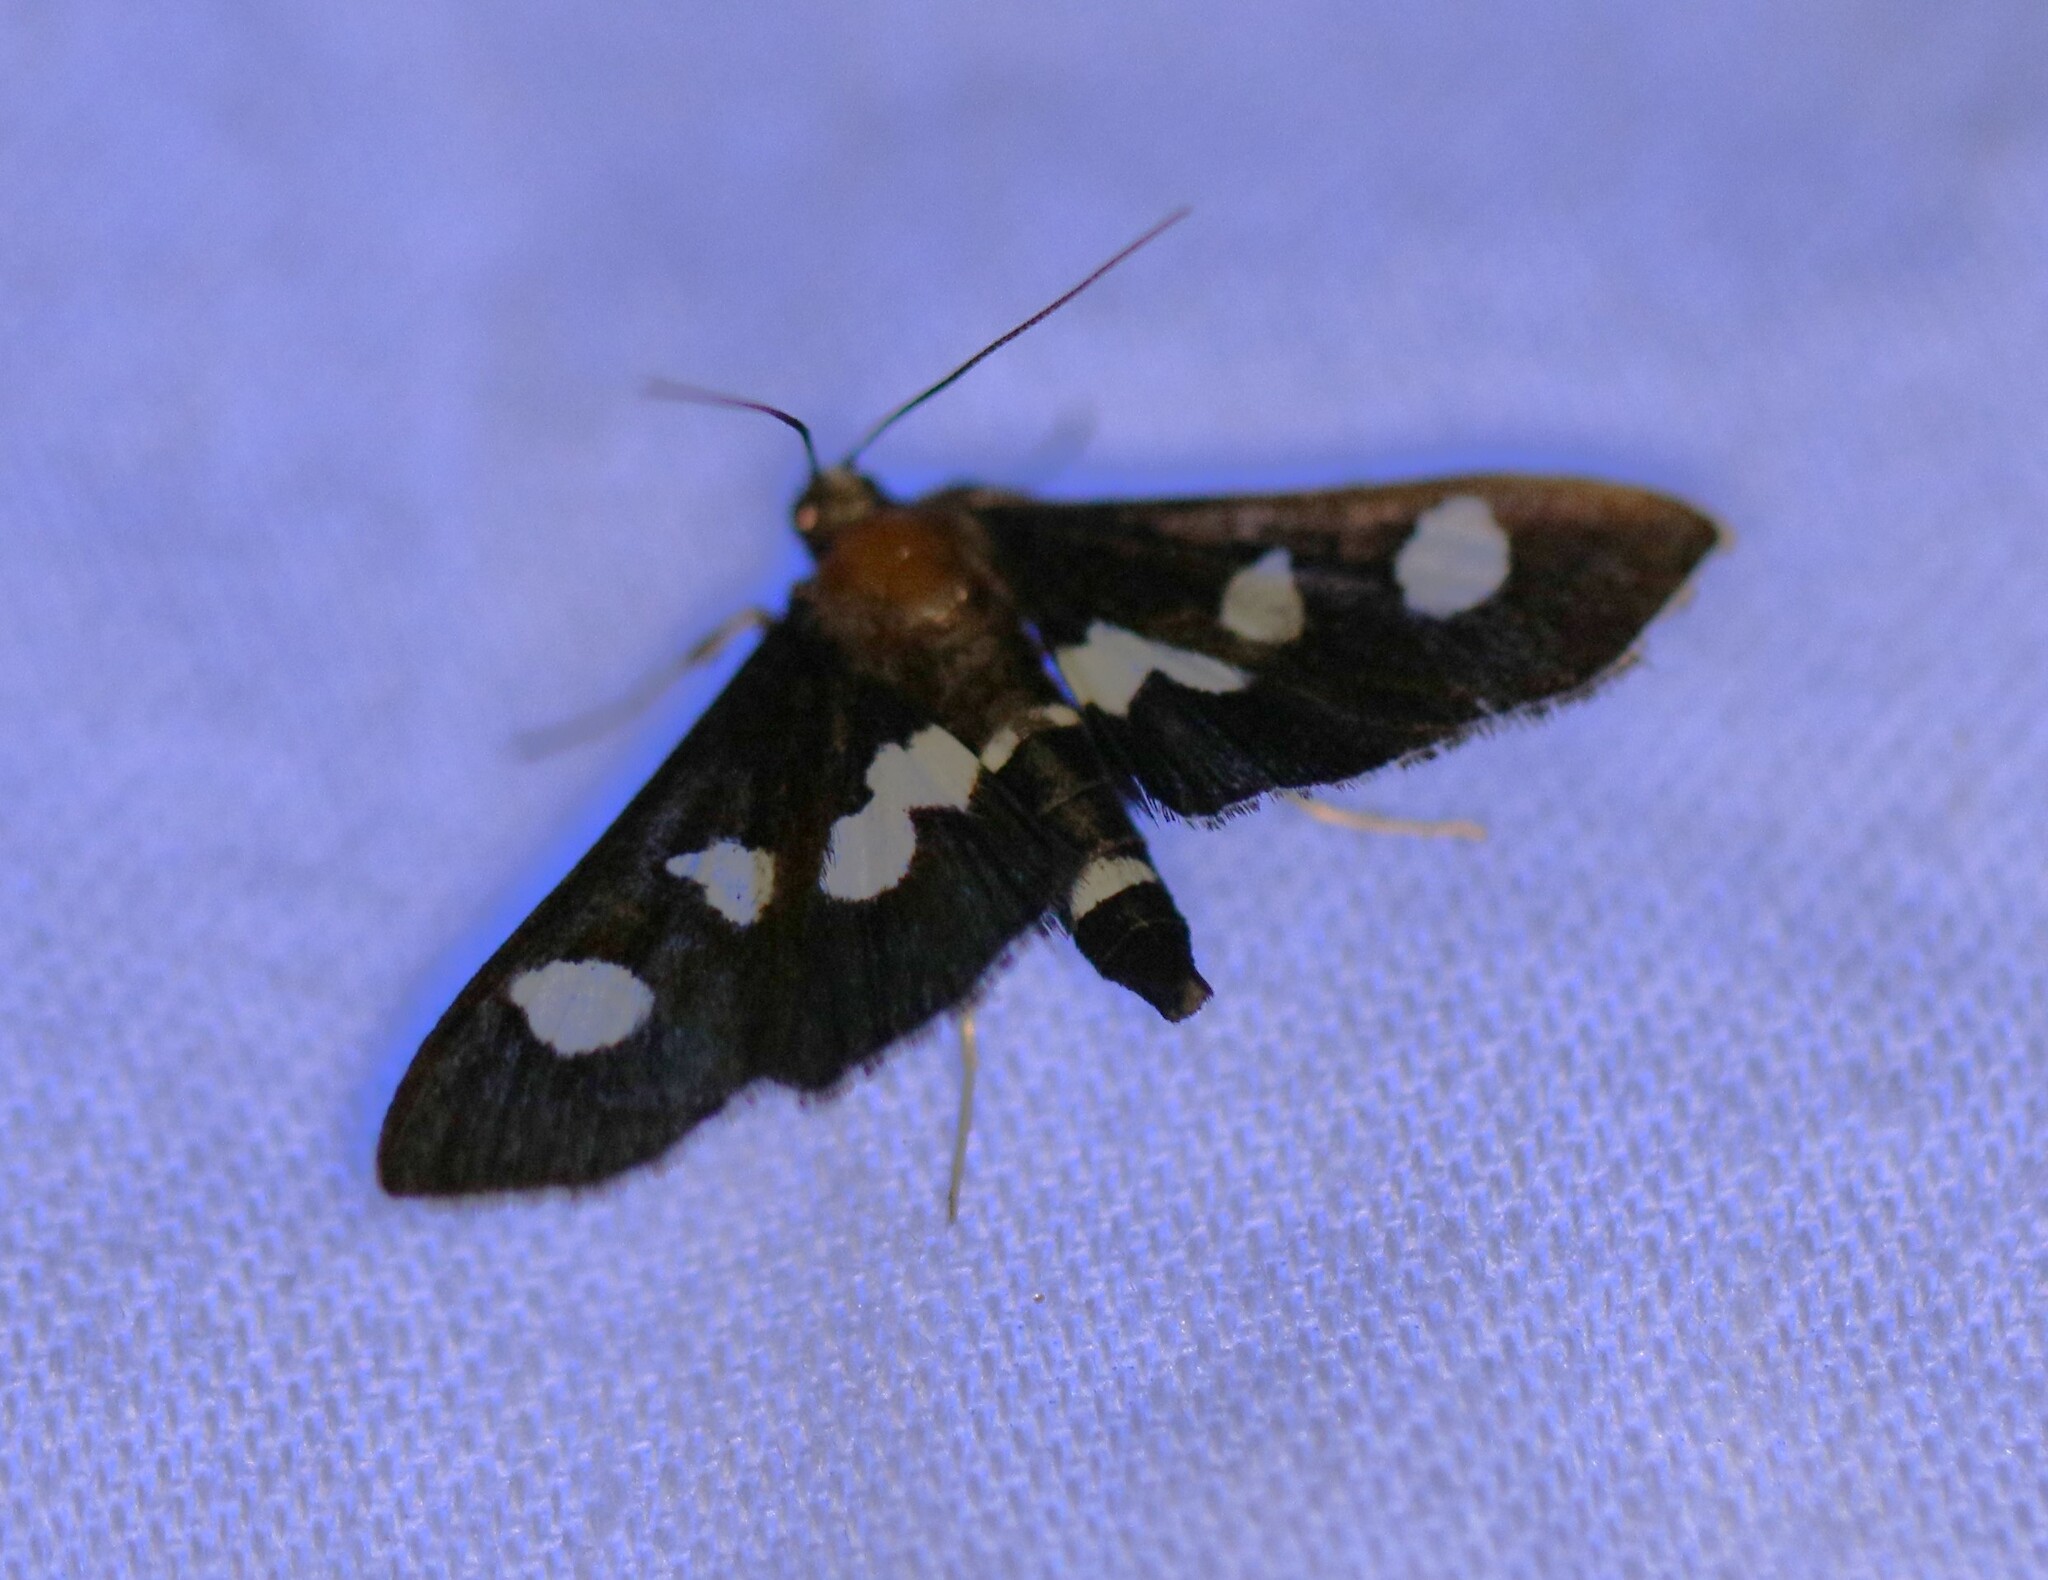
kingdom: Animalia
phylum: Arthropoda
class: Insecta
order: Lepidoptera
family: Crambidae
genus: Desmia
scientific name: Desmia
